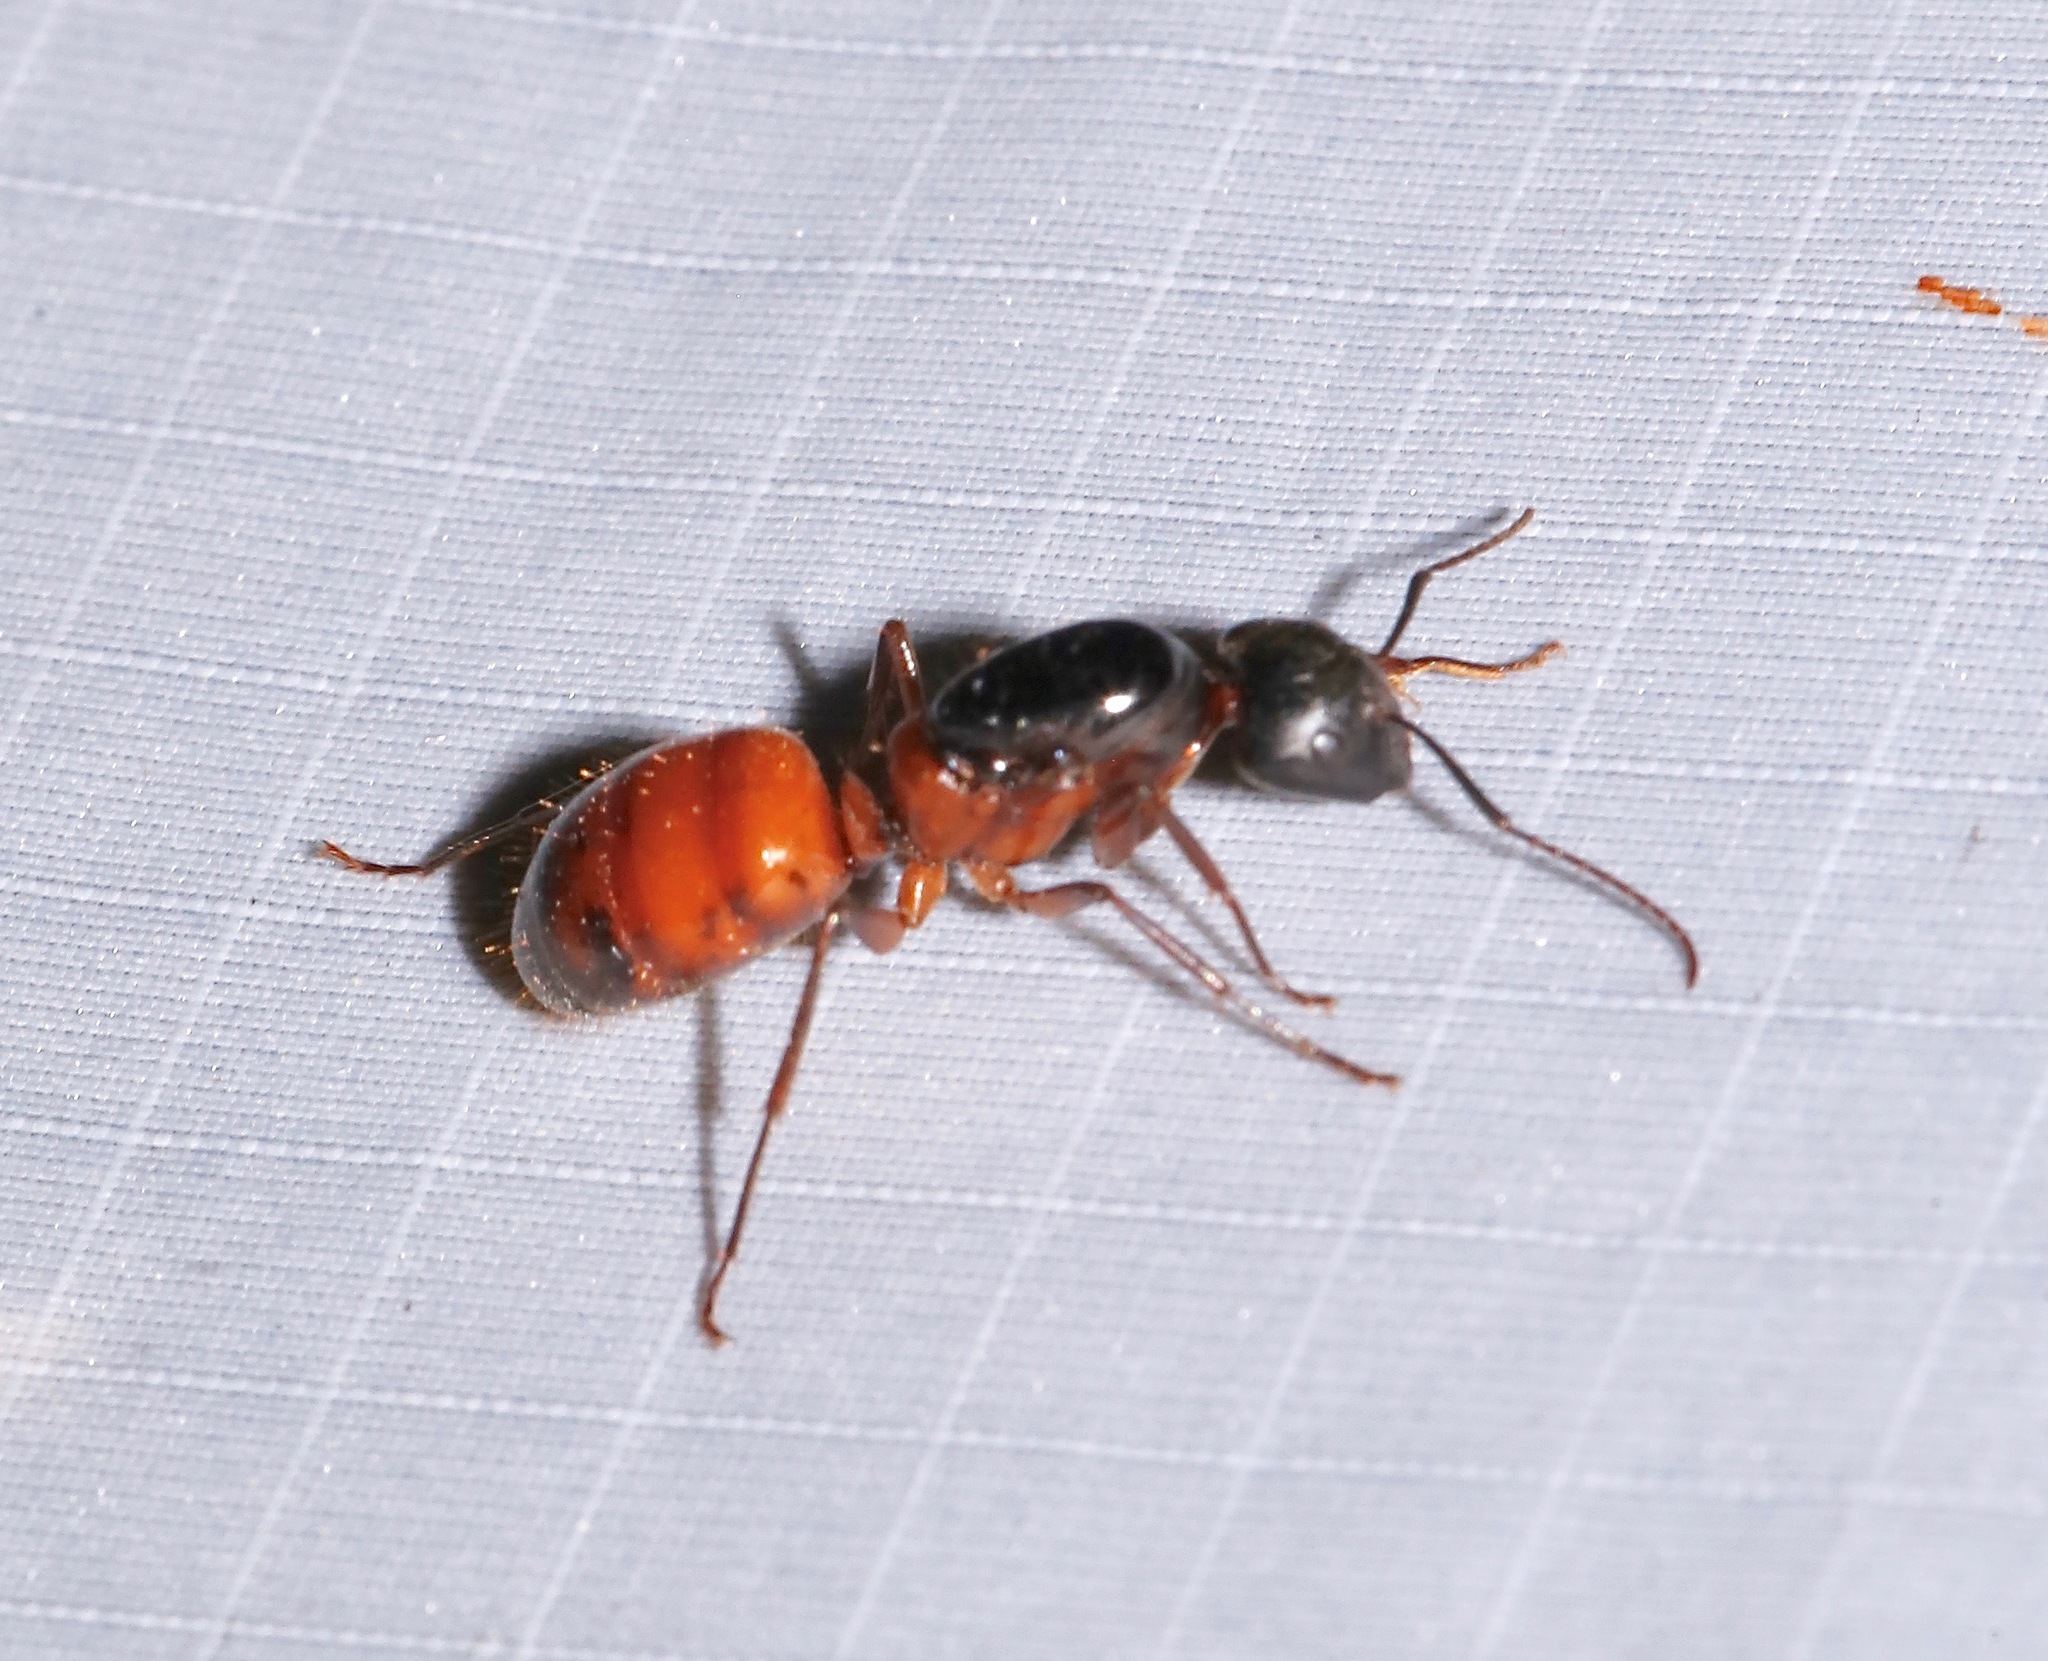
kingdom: Animalia
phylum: Arthropoda
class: Insecta
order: Hymenoptera
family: Formicidae
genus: Camponotus
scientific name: Camponotus semitestaceus
